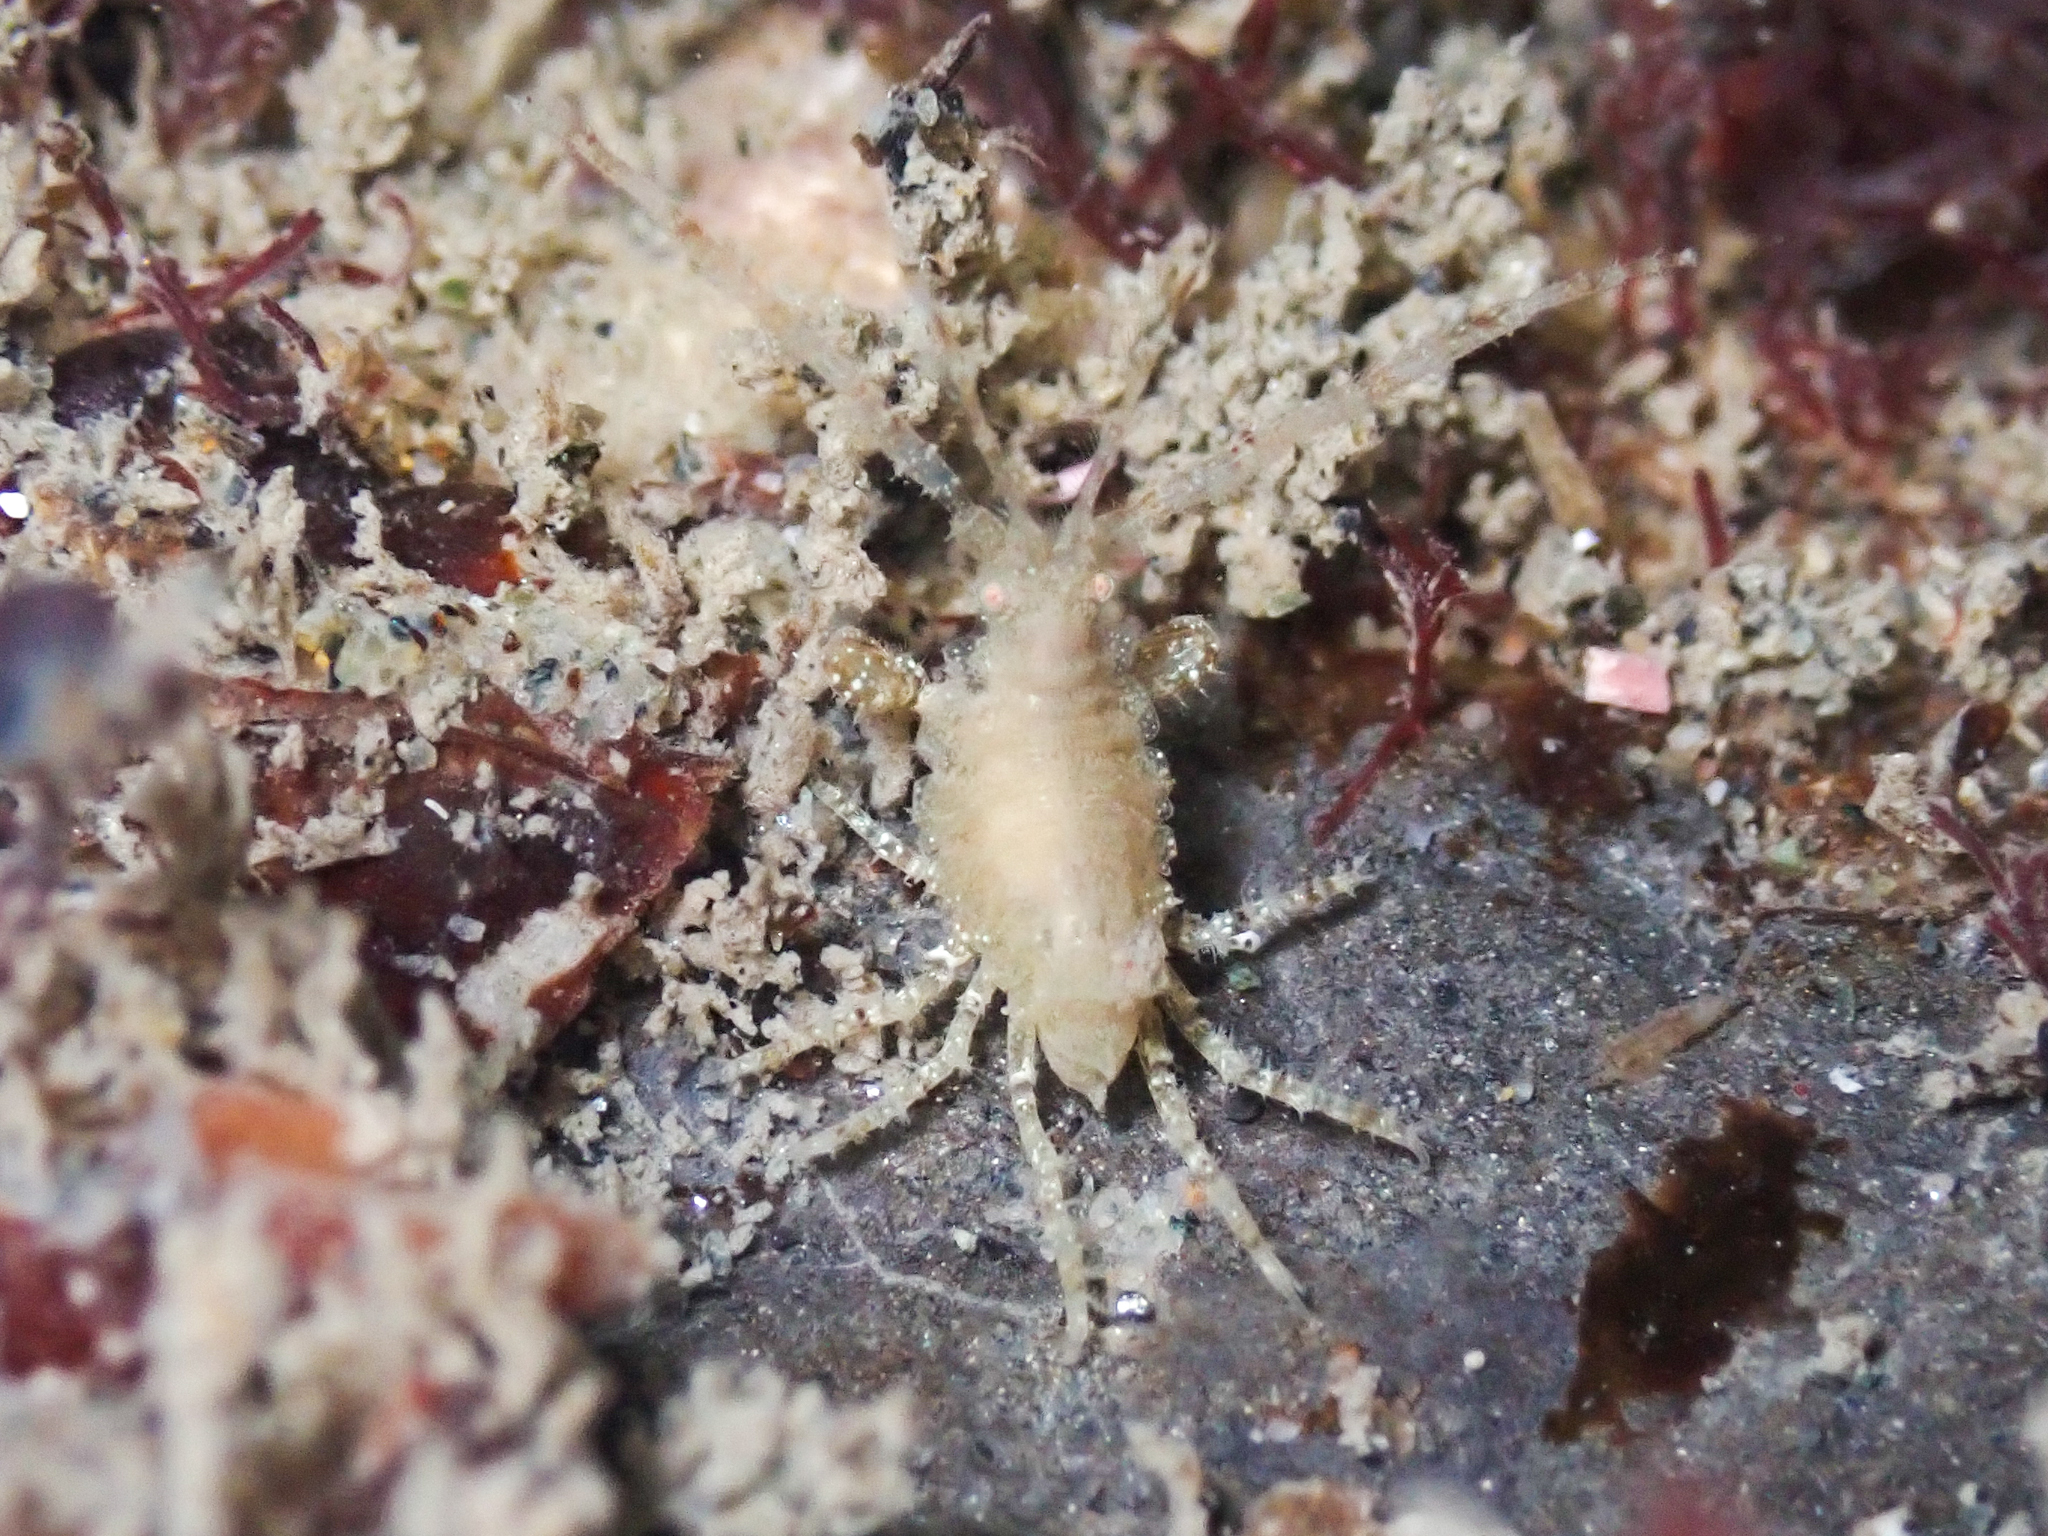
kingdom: Animalia
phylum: Arthropoda
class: Malacostraca
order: Amphipoda
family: Podoceridae
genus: Podocerus
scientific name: Podocerus cristatus
